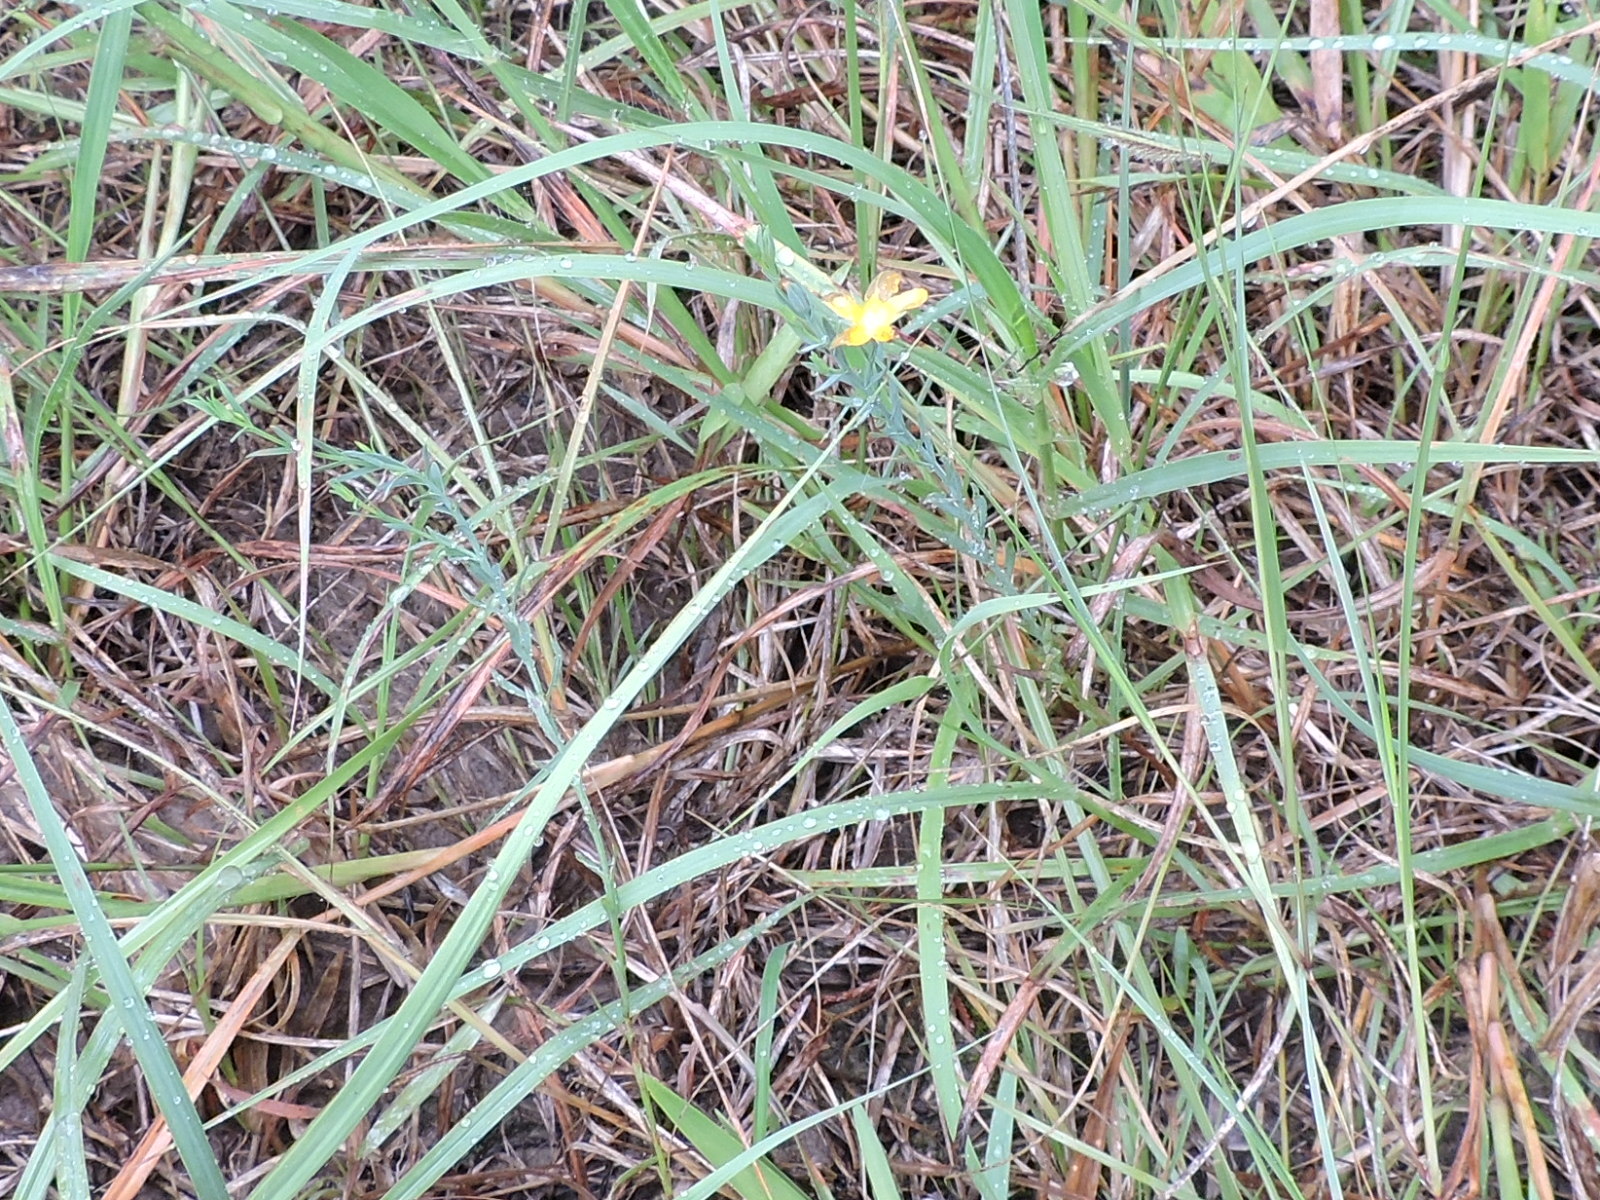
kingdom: Plantae
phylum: Tracheophyta
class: Magnoliopsida
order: Malpighiales
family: Hypericaceae
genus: Hypericum
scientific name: Hypericum drummondii
